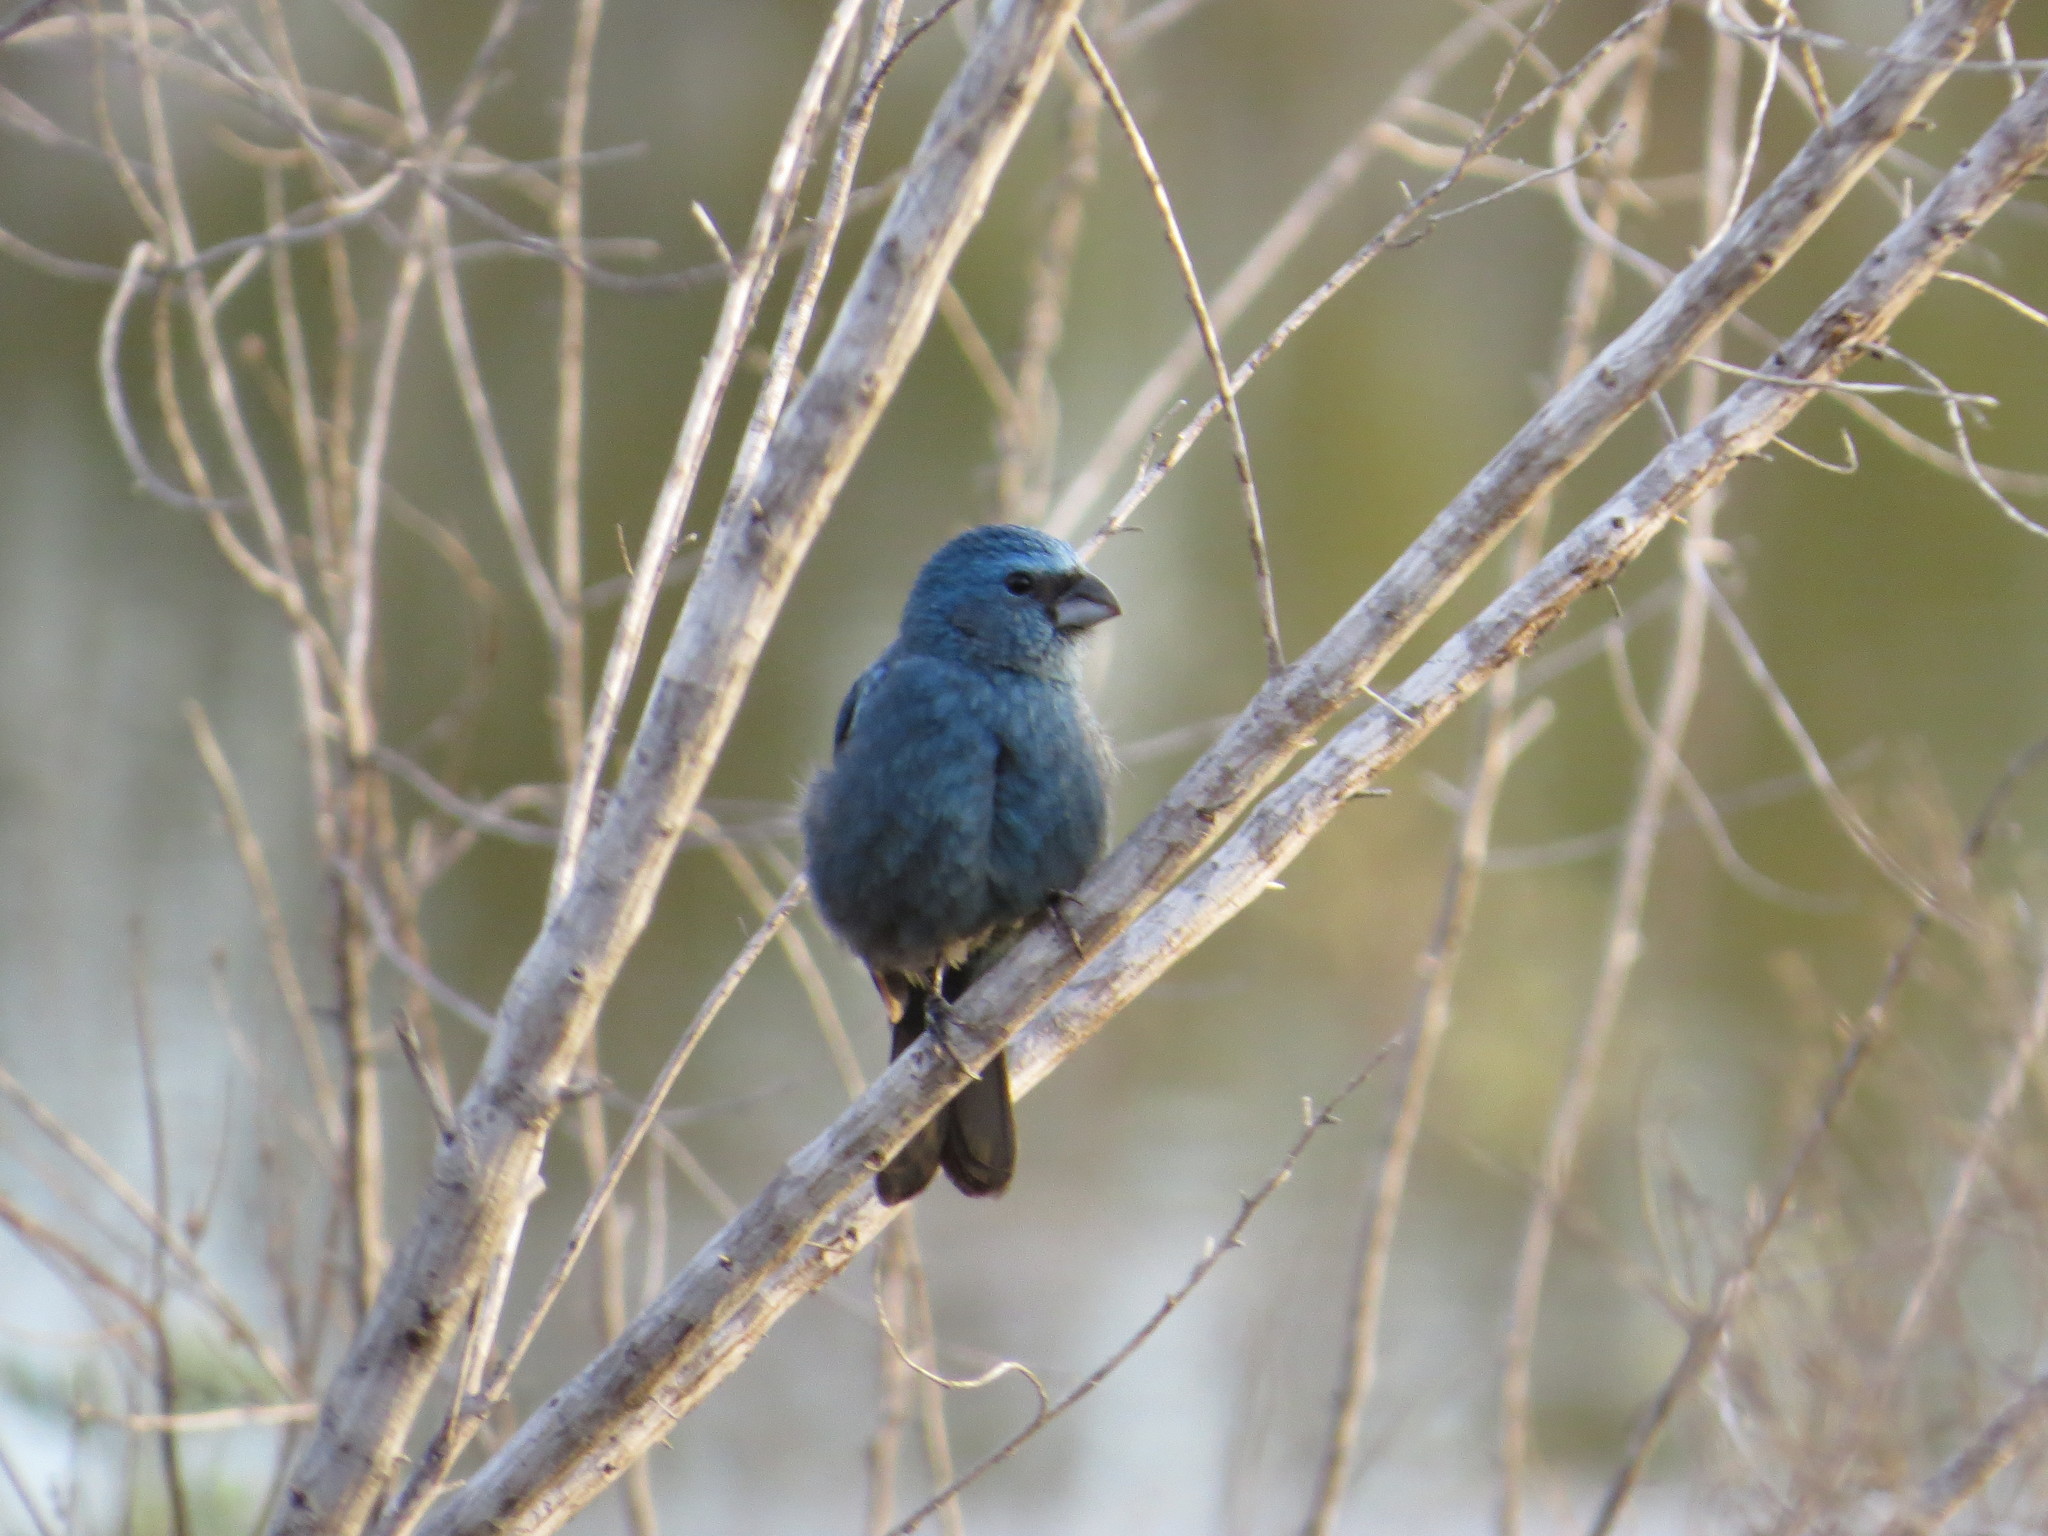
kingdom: Animalia
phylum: Chordata
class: Aves
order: Passeriformes
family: Cardinalidae
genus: Cyanoloxia
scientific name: Cyanoloxia glaucocaerulea
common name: Glaucous-blue grosbeak
